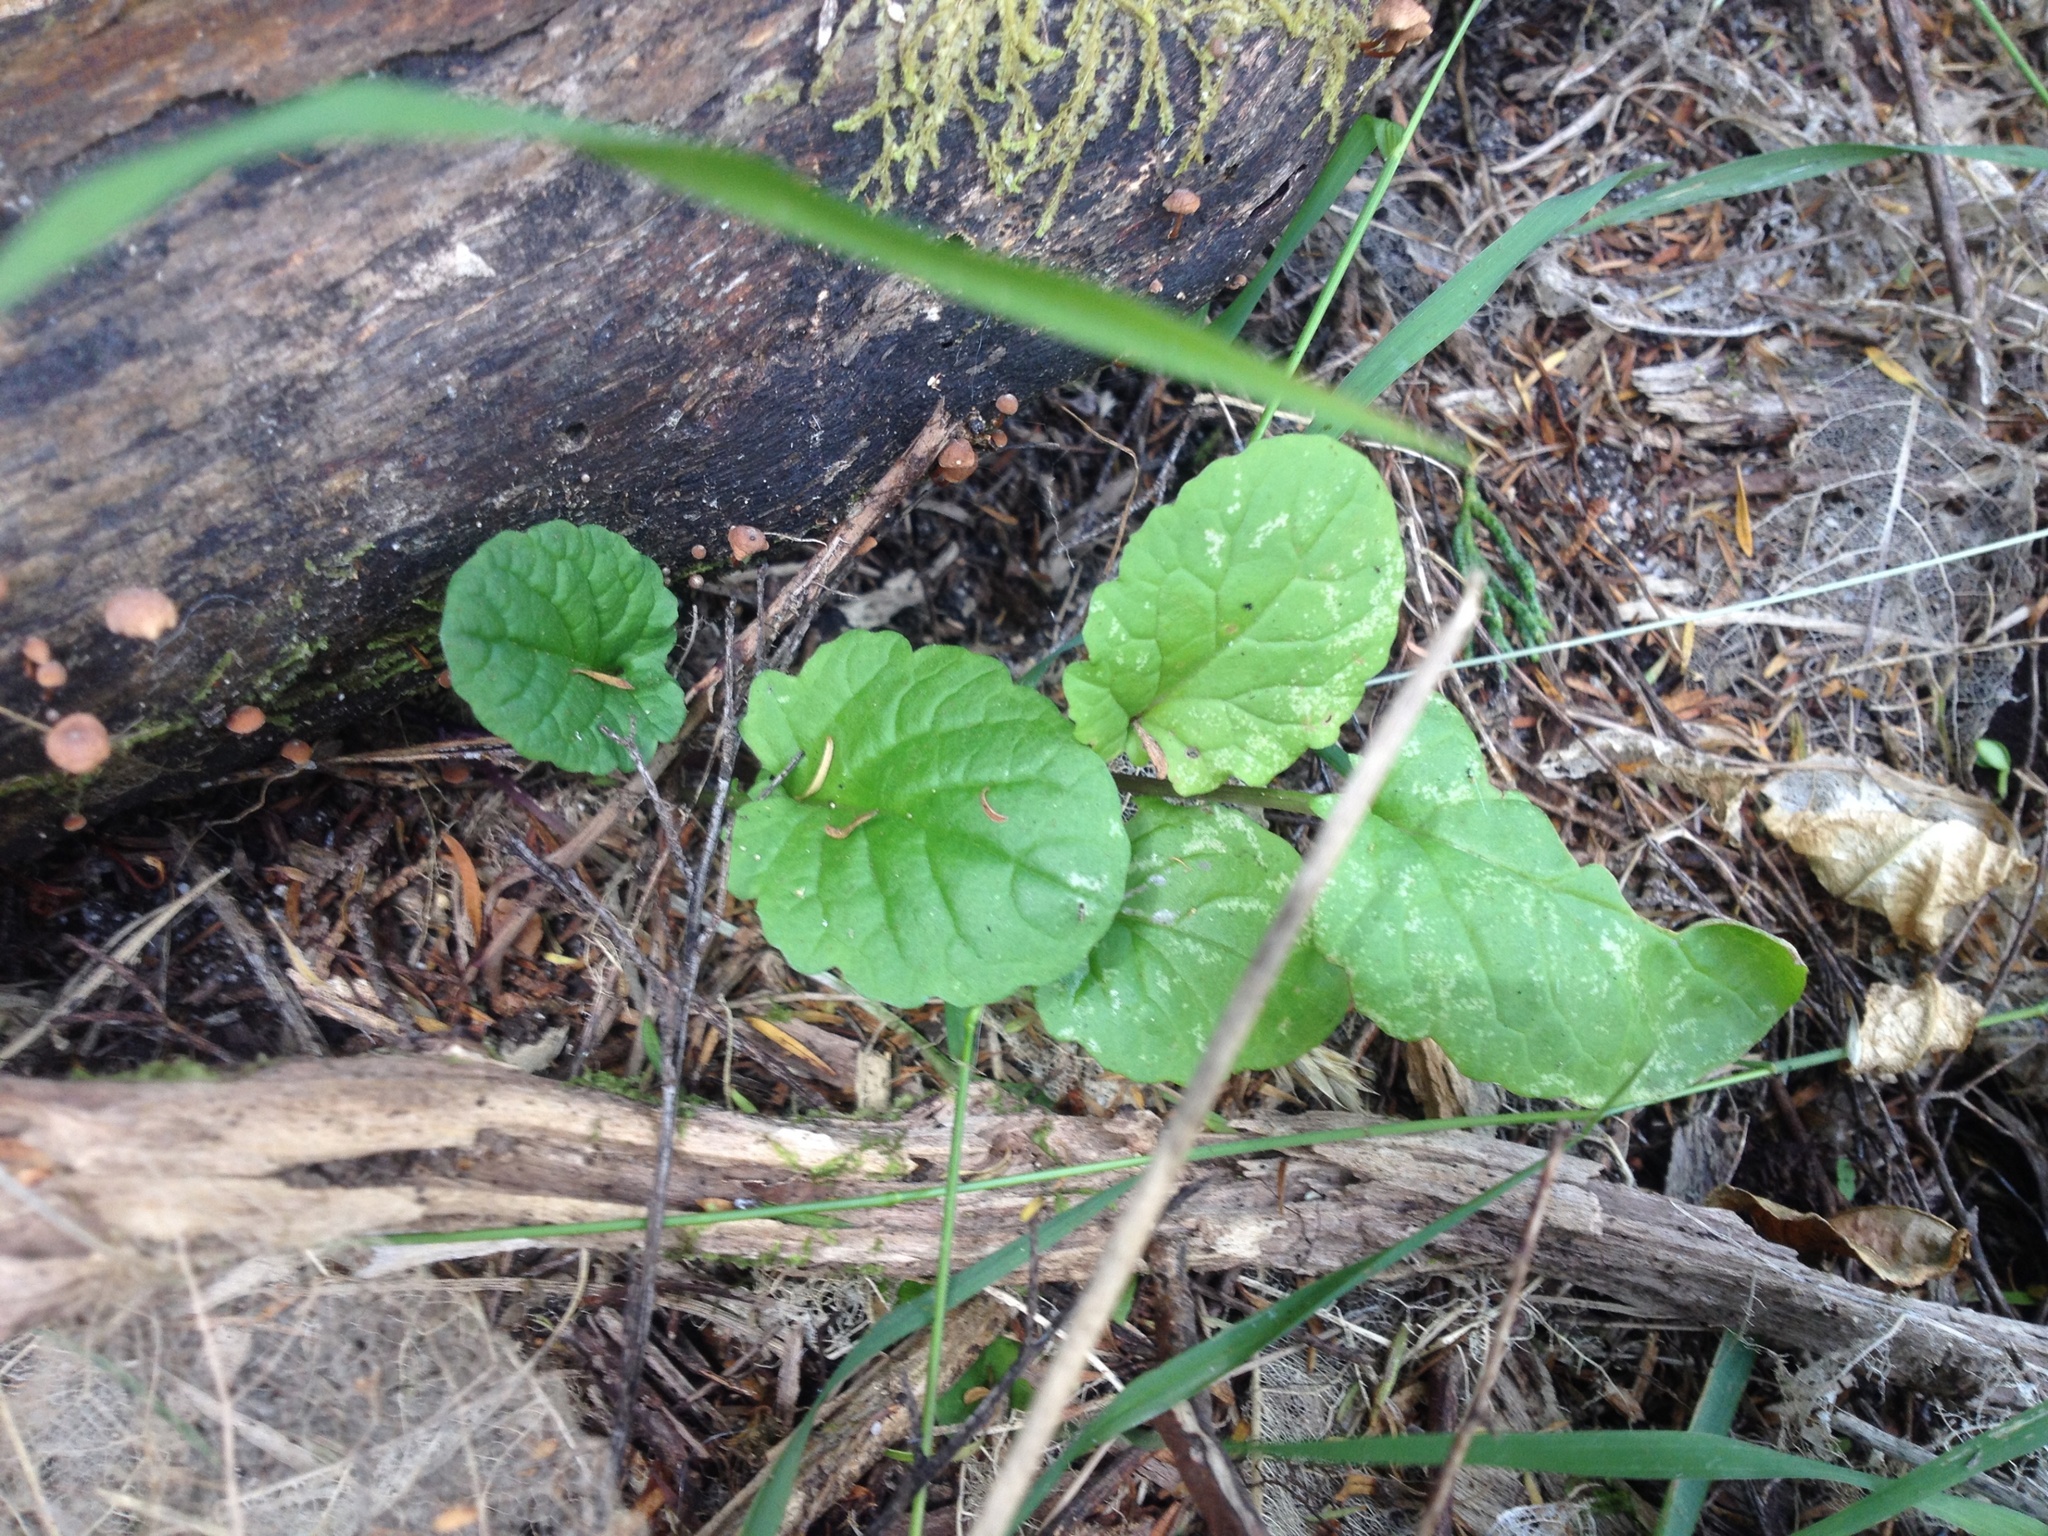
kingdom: Plantae
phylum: Tracheophyta
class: Magnoliopsida
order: Asterales
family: Asteraceae
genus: Jacobaea
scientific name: Jacobaea vulgaris
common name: Stinking willie
